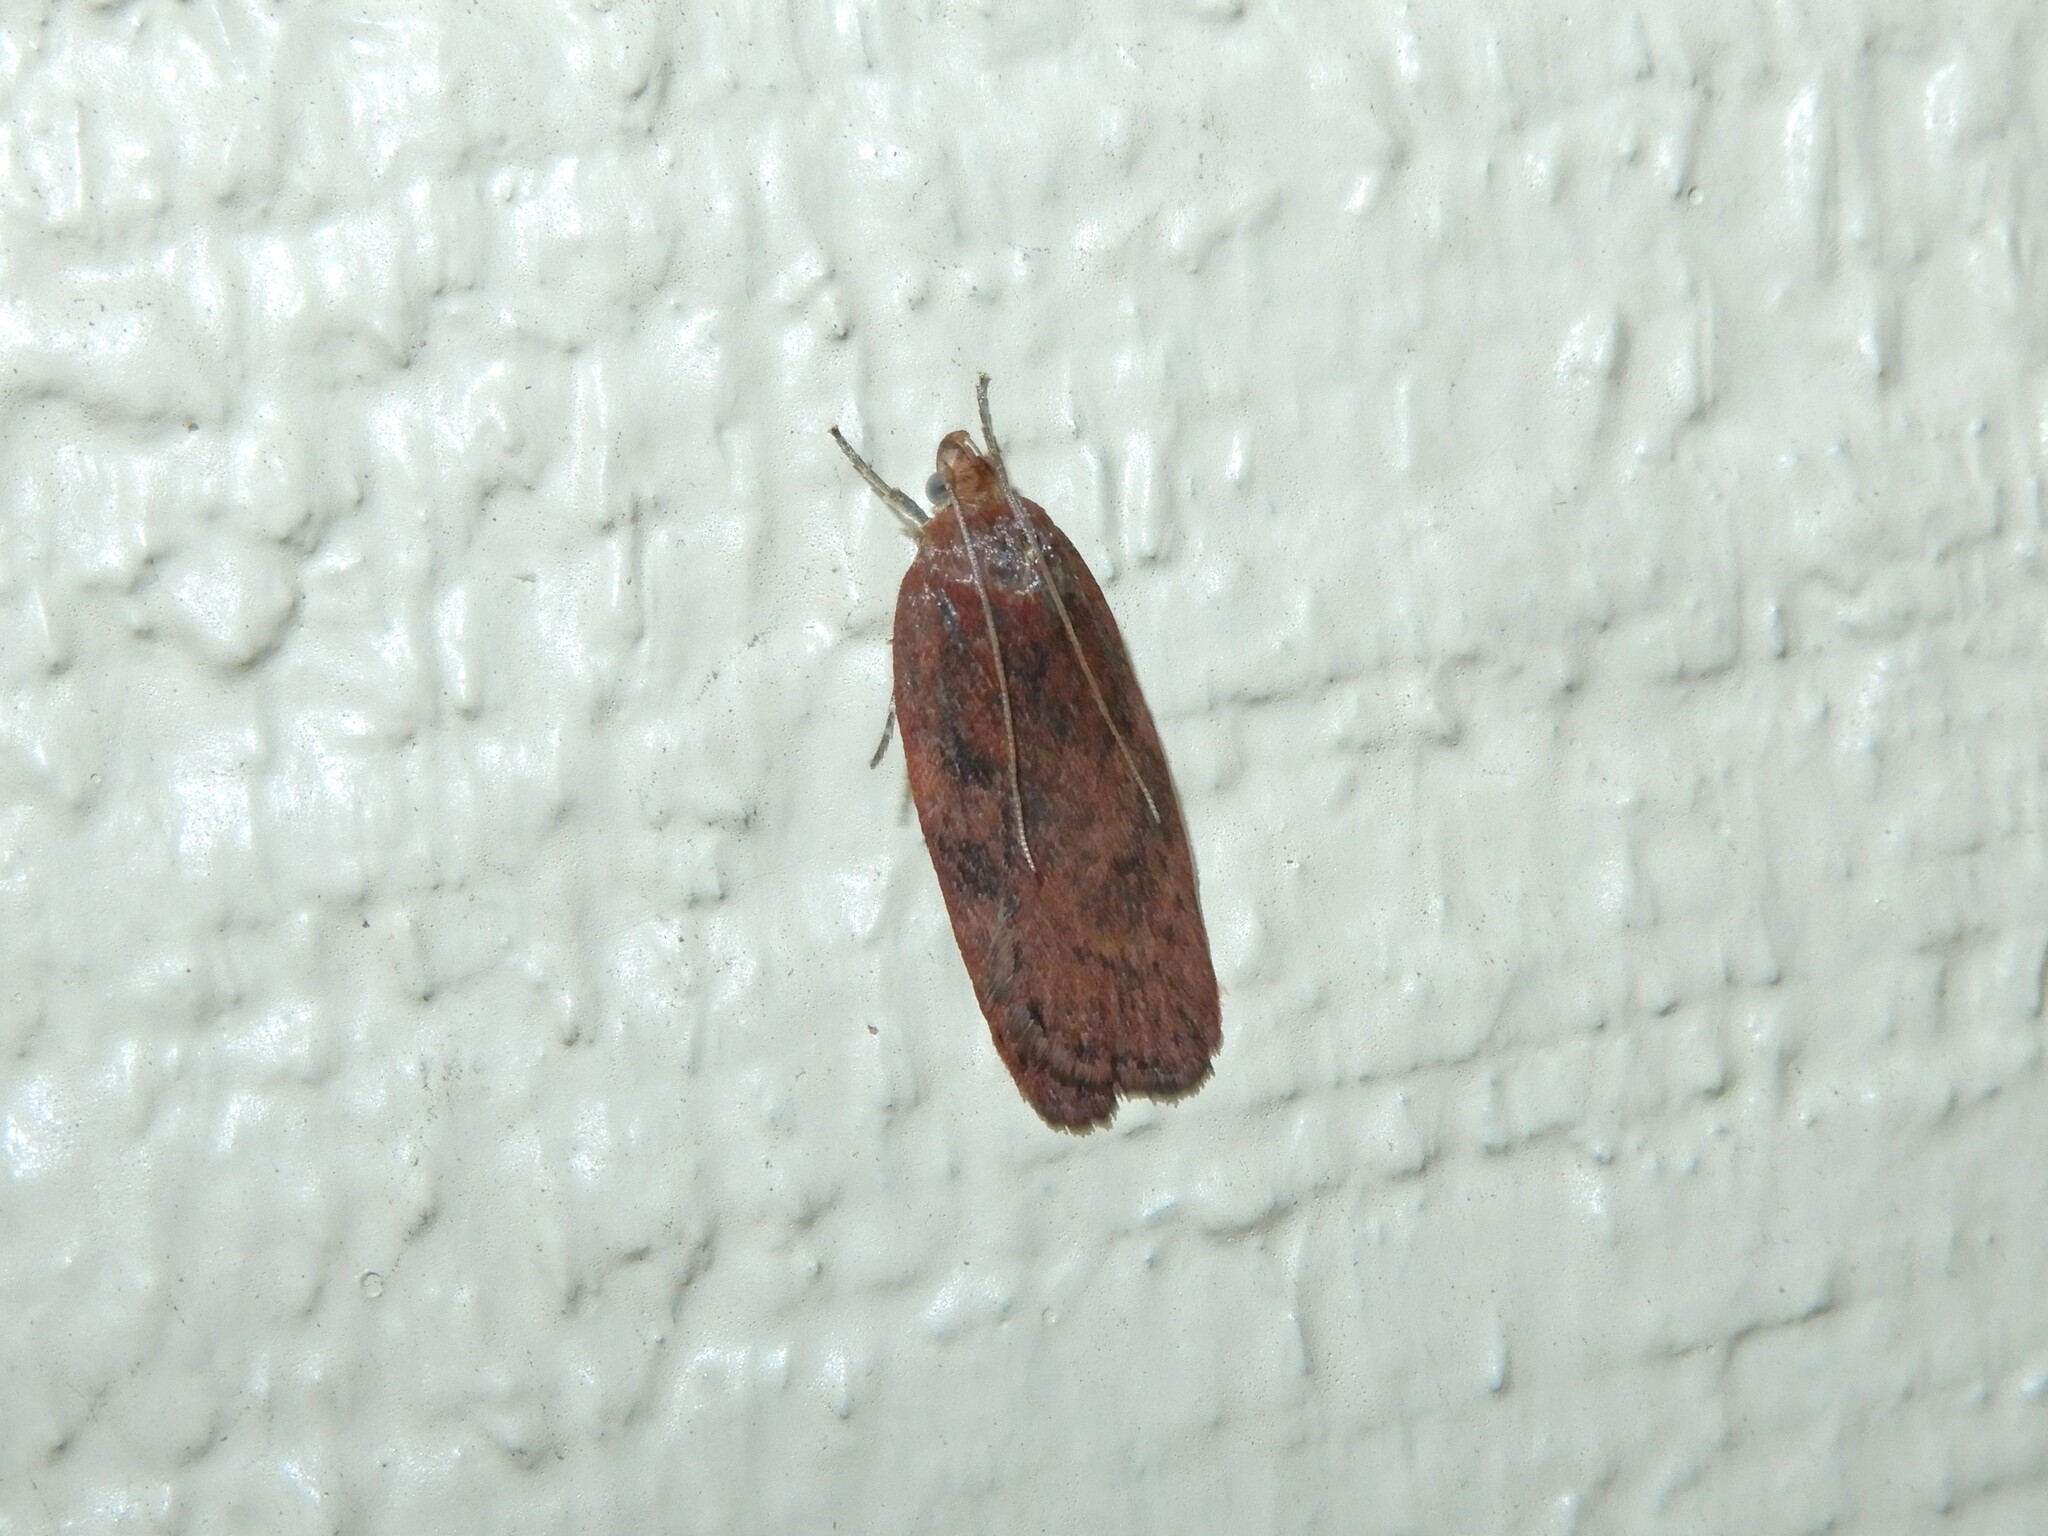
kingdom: Animalia
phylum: Arthropoda
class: Insecta
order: Lepidoptera
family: Depressariidae
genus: Phaeosaces
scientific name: Phaeosaces coarctatella
